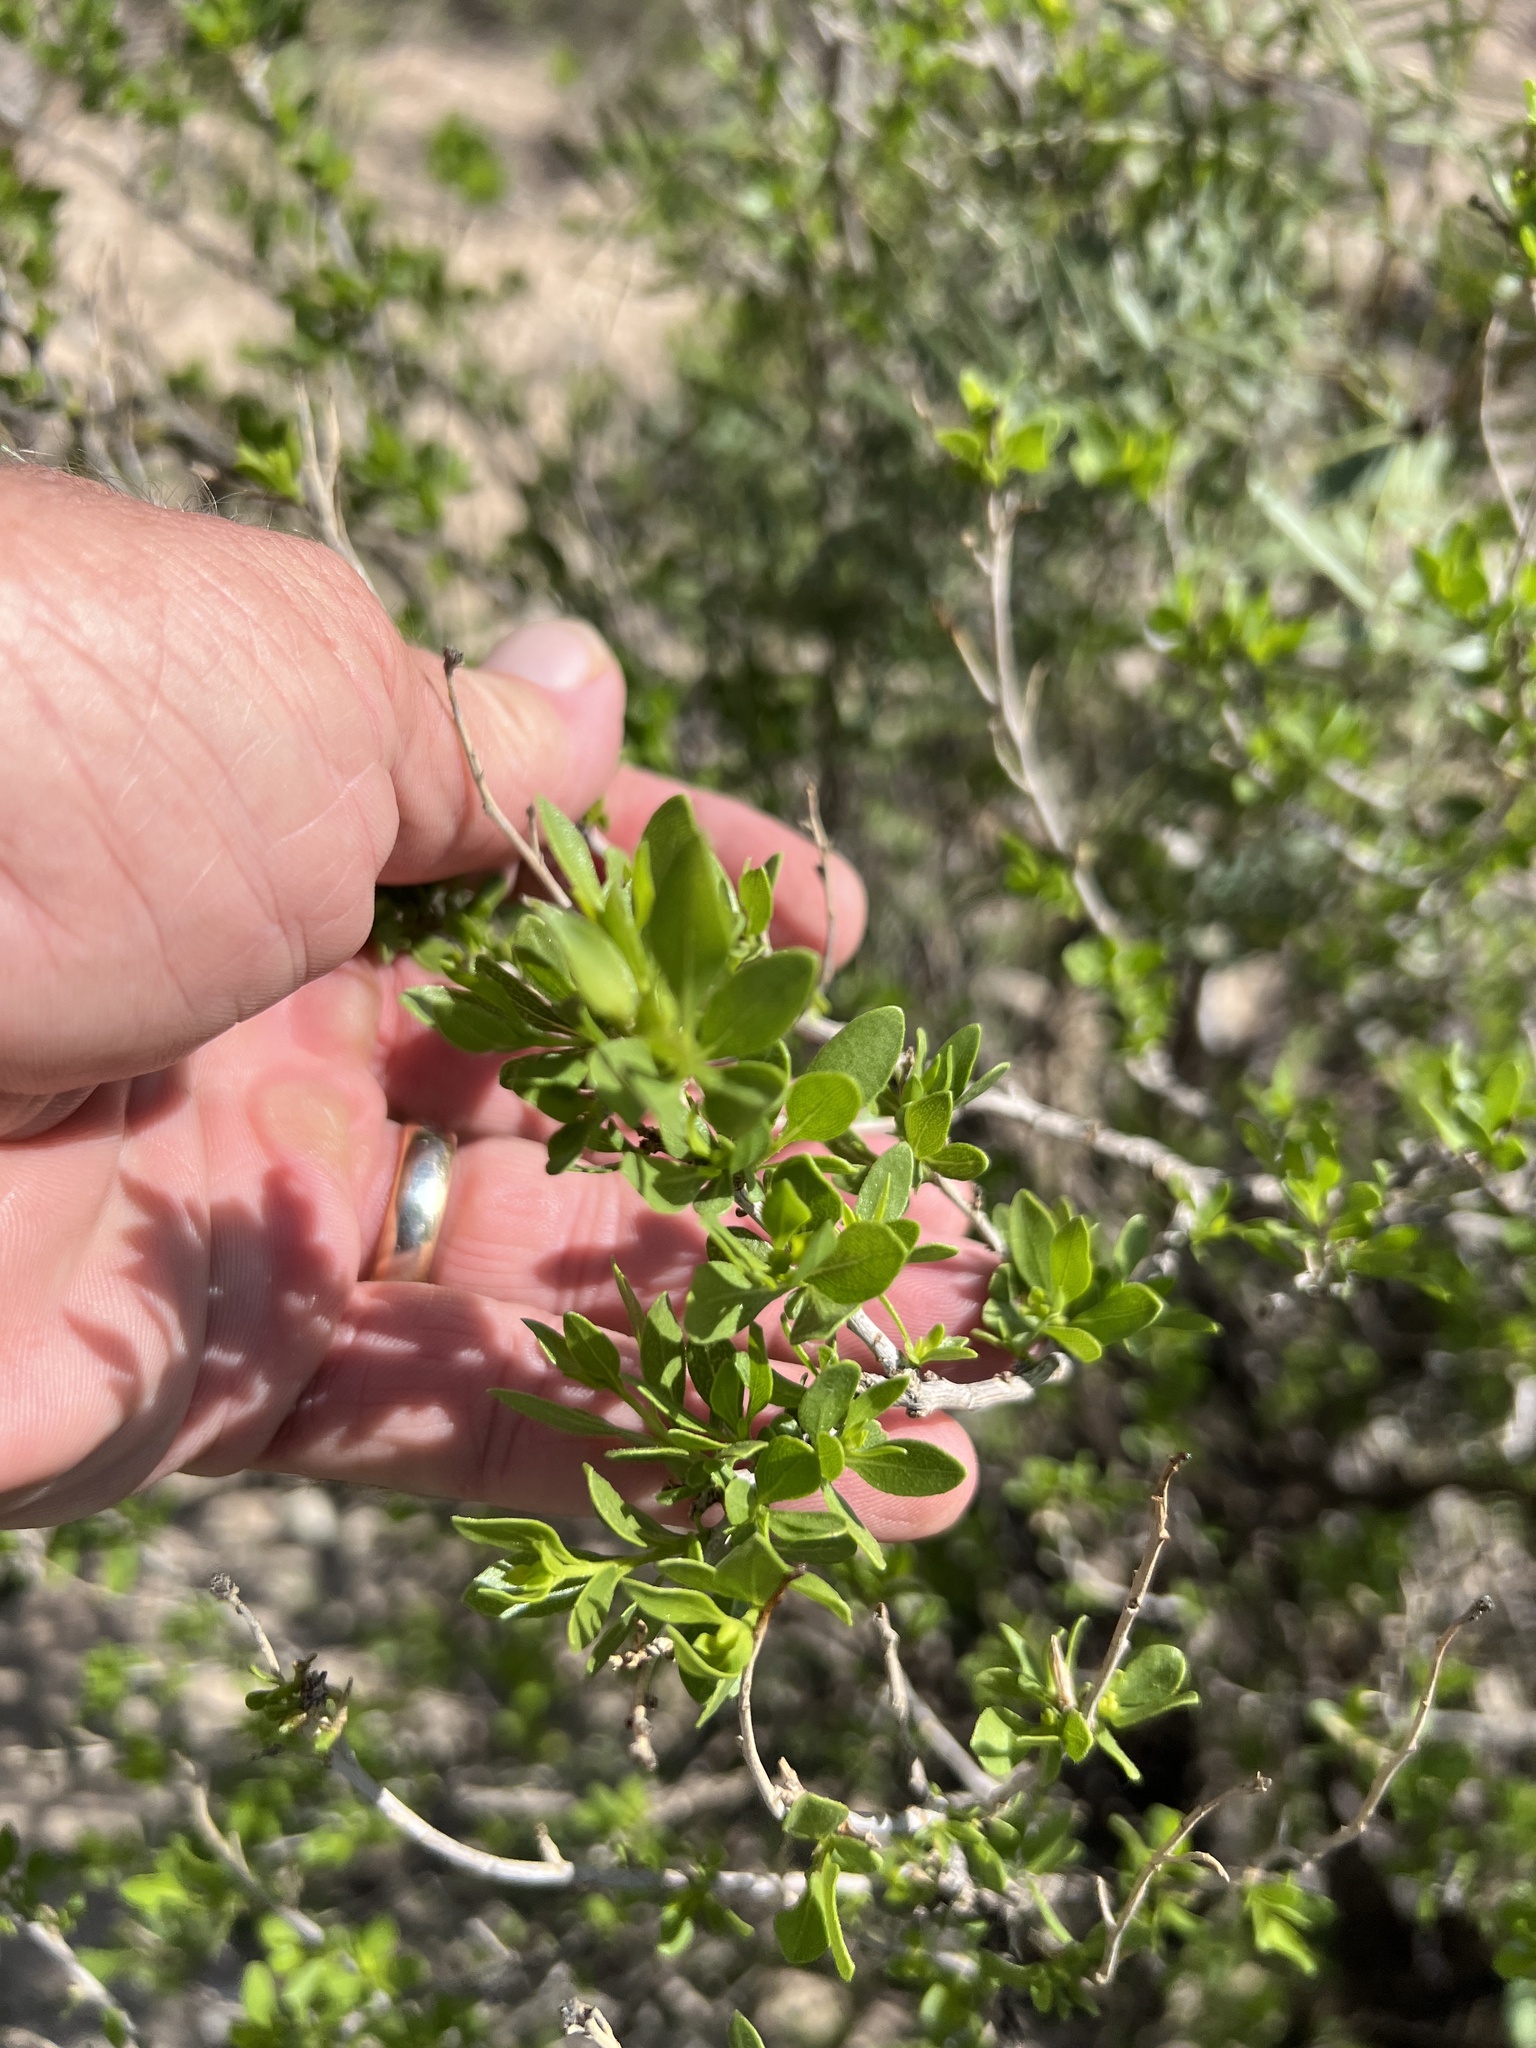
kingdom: Plantae
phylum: Tracheophyta
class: Magnoliopsida
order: Asterales
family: Asteraceae
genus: Flourensia
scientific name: Flourensia cernua
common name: Varnishbush
